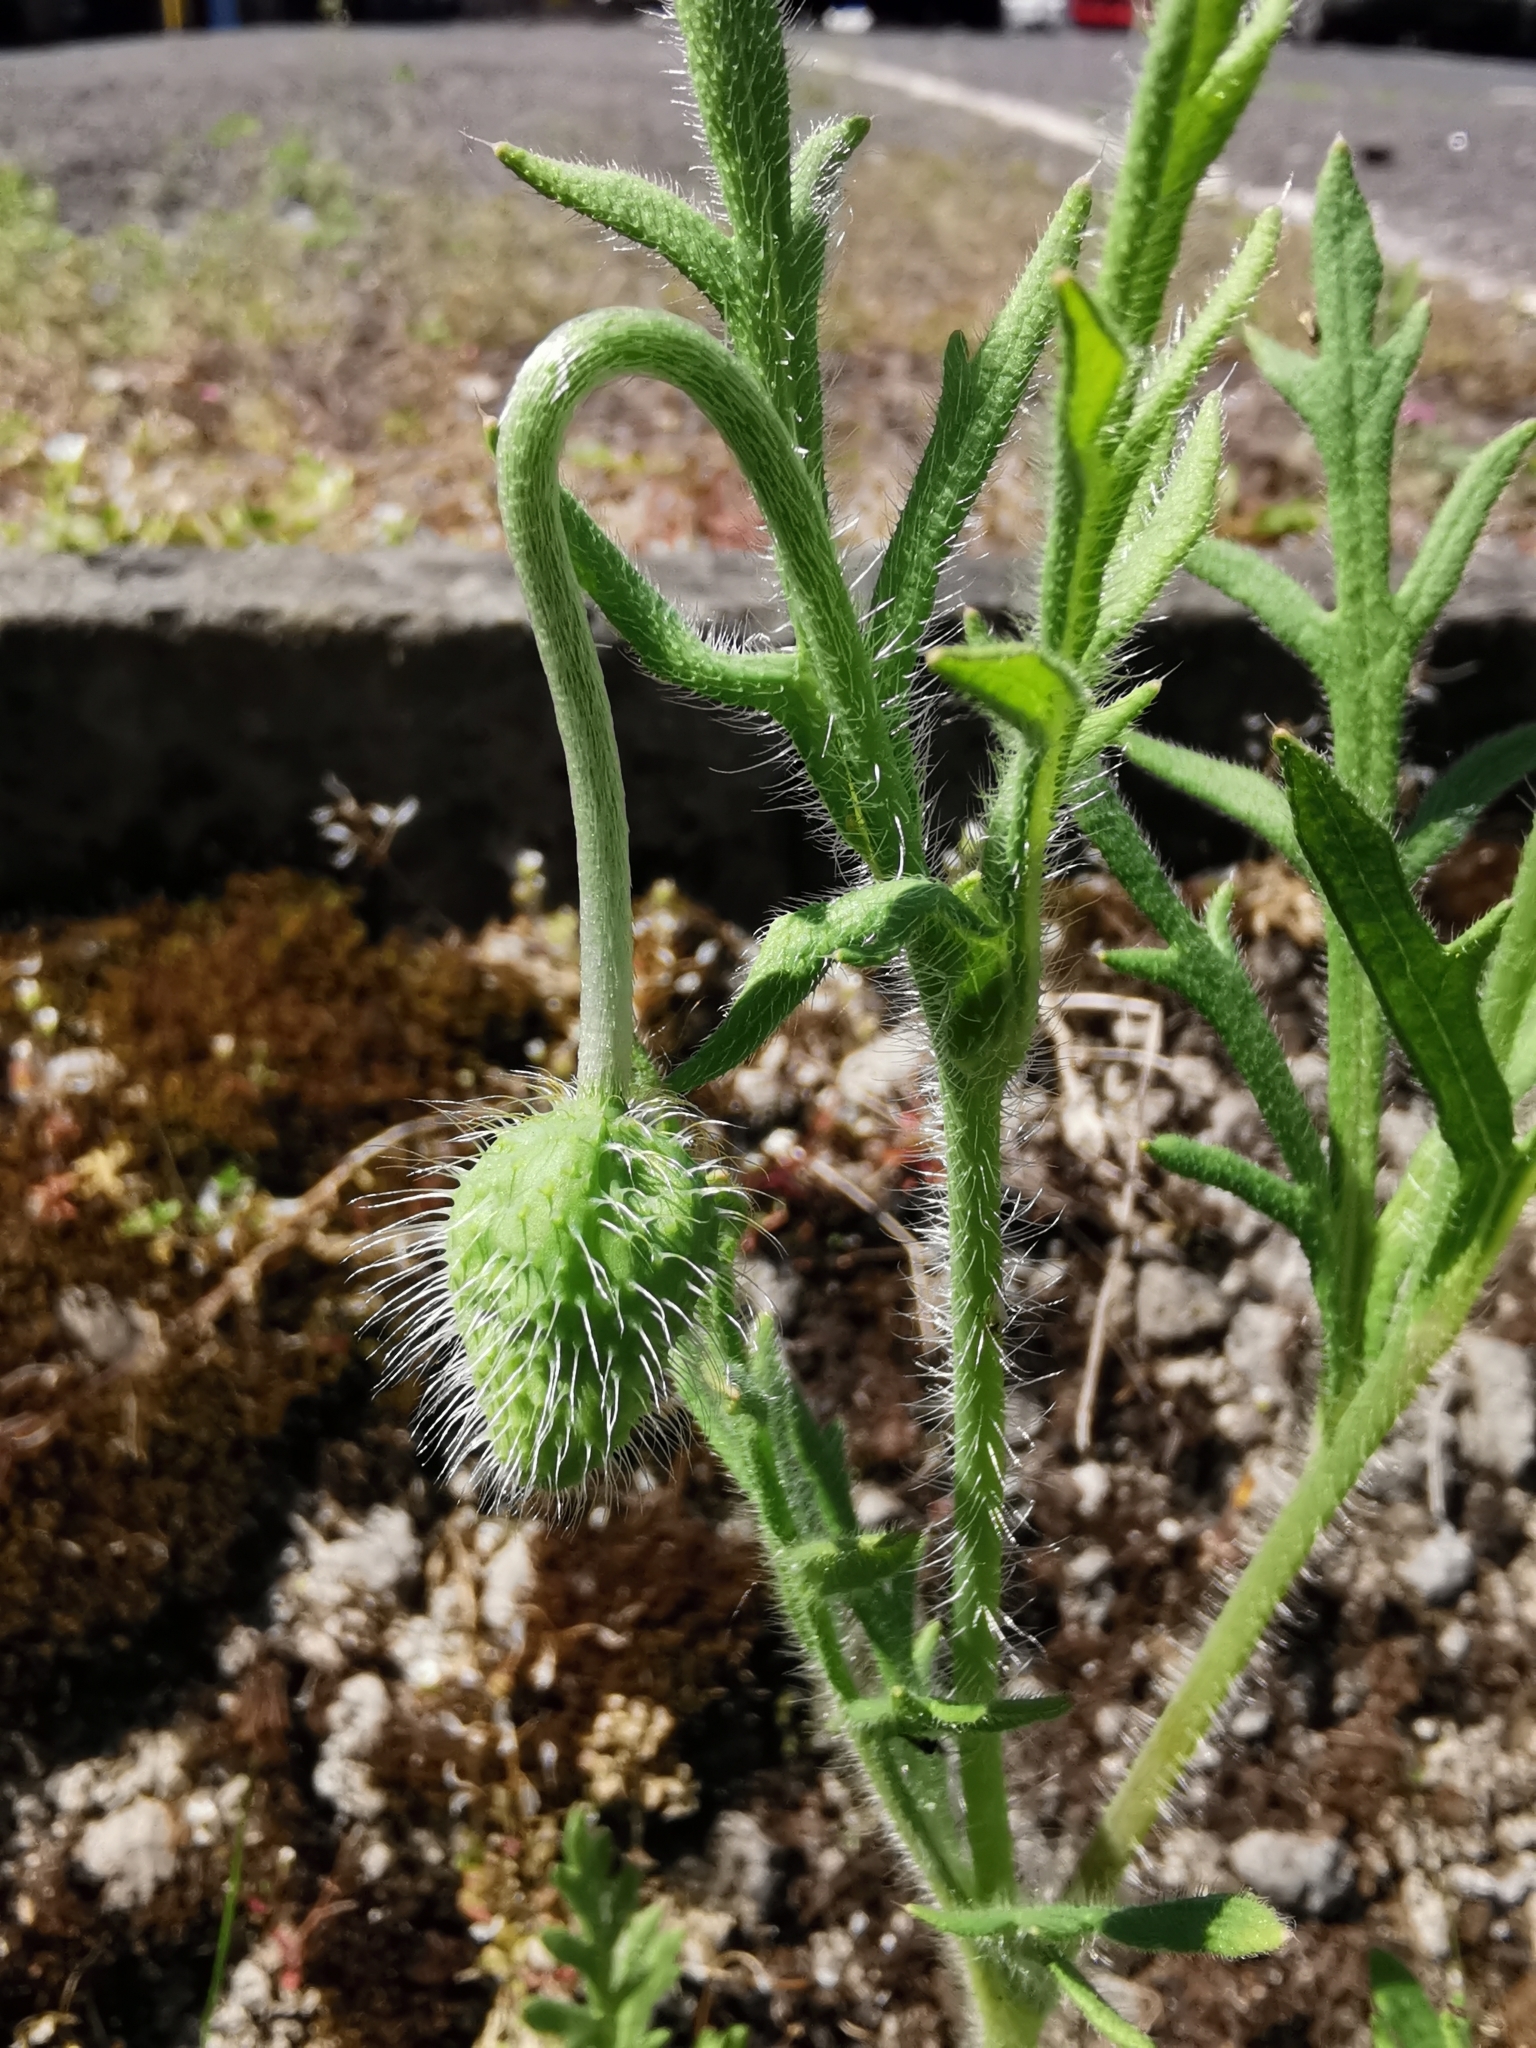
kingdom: Plantae
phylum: Tracheophyta
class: Magnoliopsida
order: Ranunculales
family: Papaveraceae
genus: Papaver
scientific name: Papaver dubium
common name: Long-headed poppy
